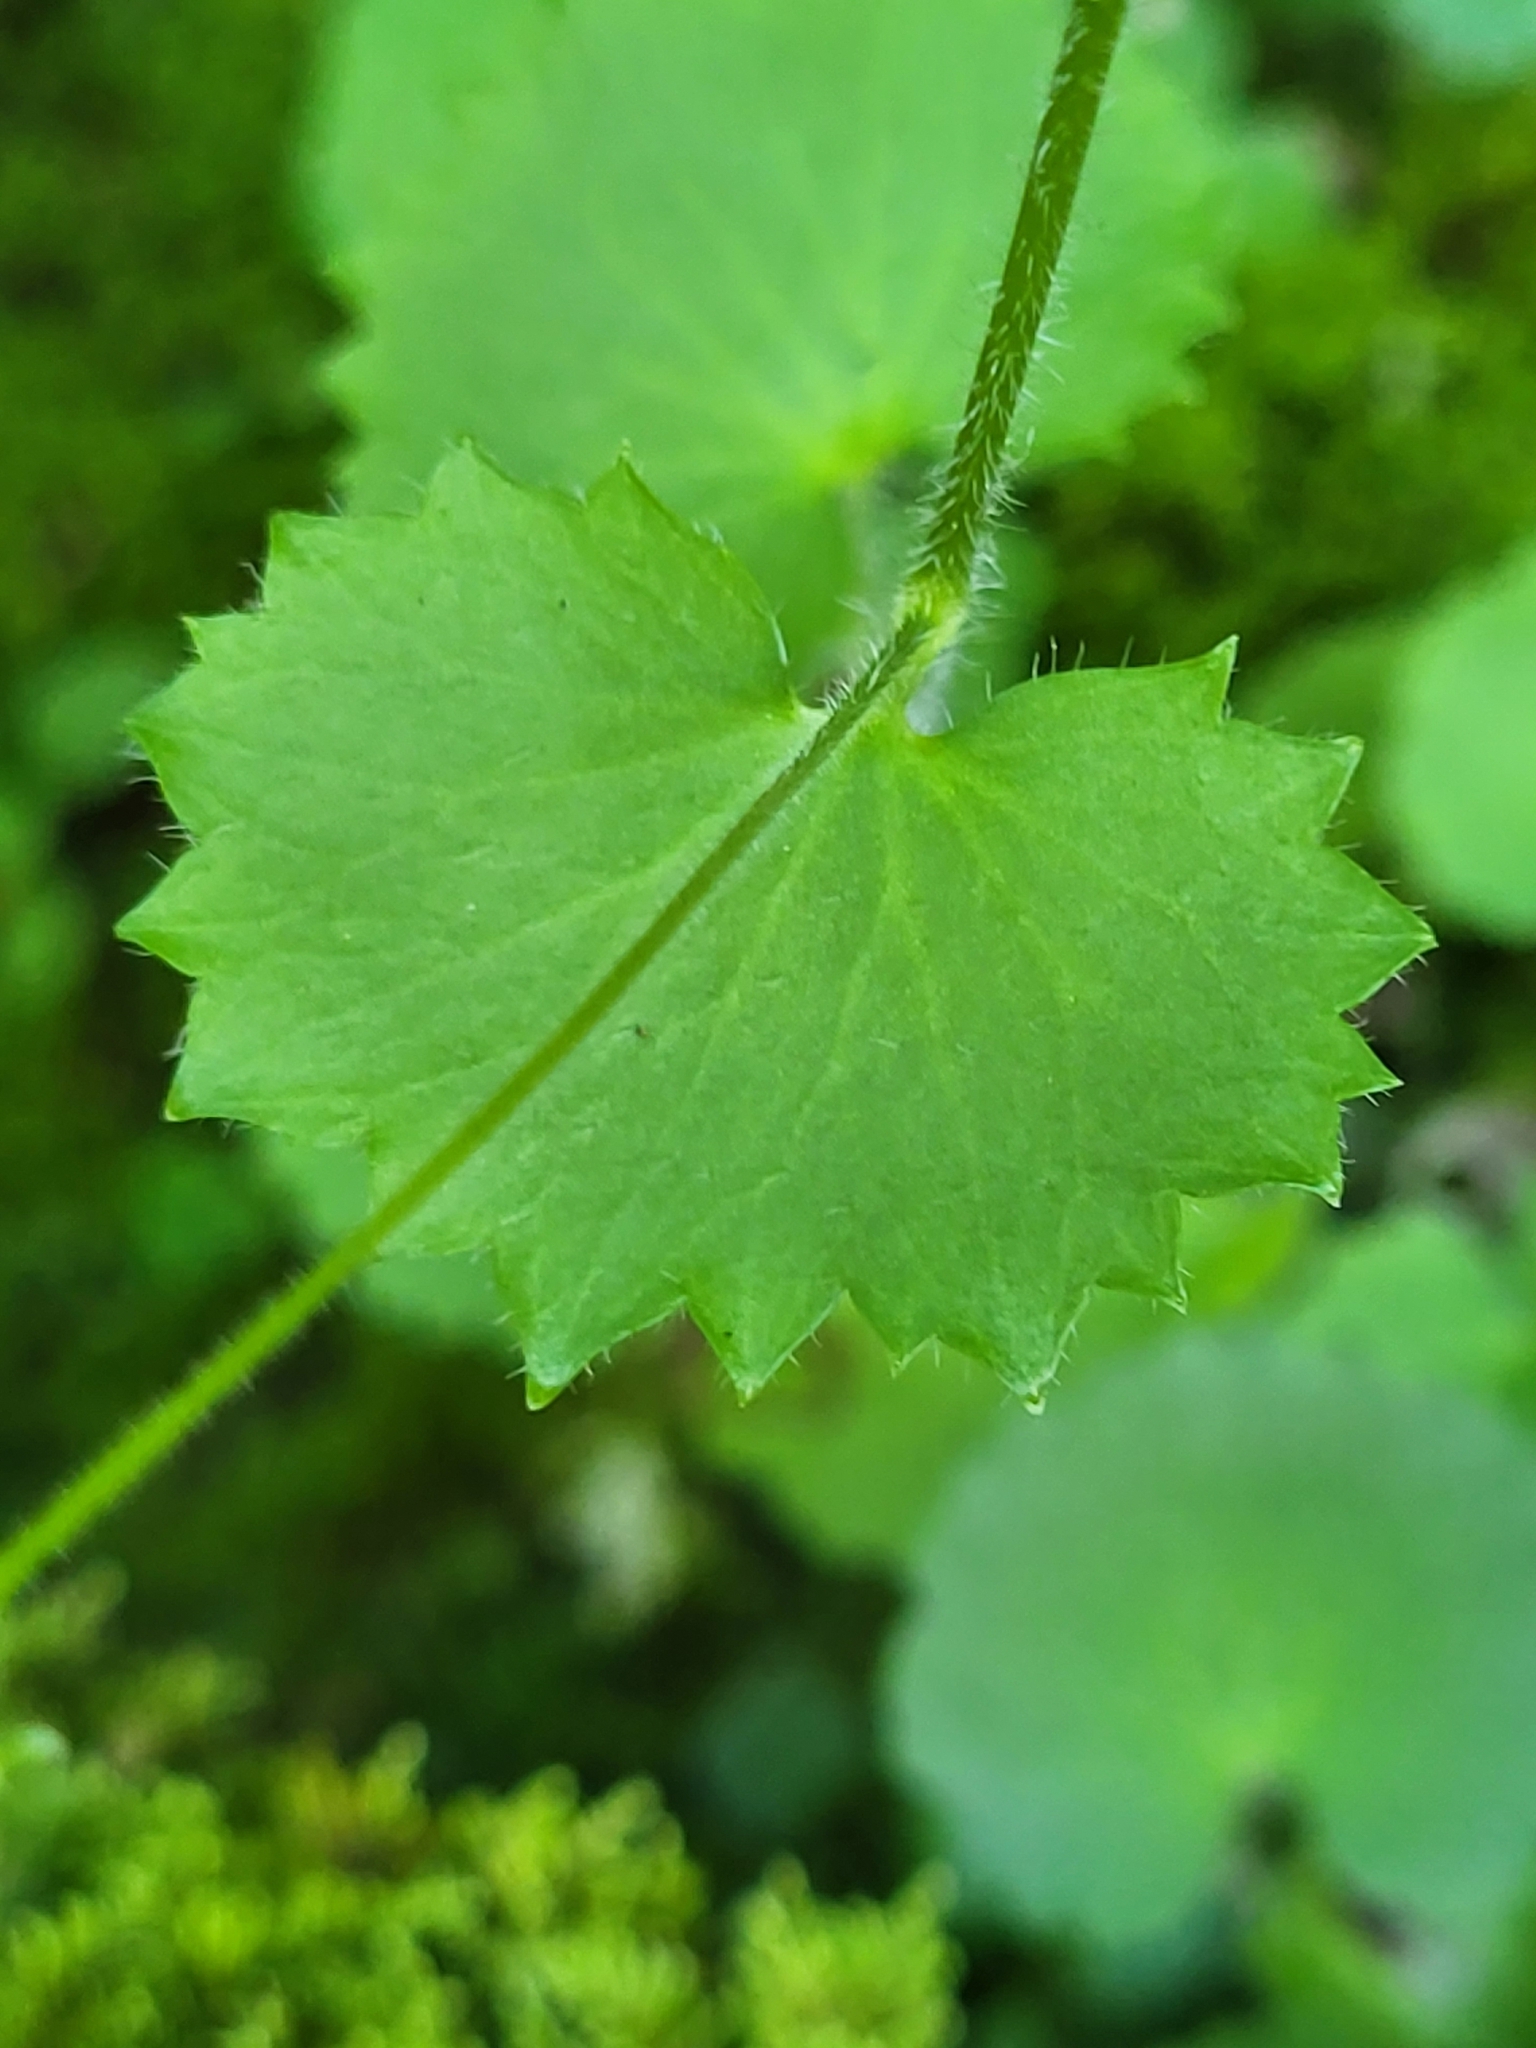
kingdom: Plantae
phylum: Tracheophyta
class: Magnoliopsida
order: Saxifragales
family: Saxifragaceae
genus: Saxifraga
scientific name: Saxifraga rotundifolia
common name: Round-leaved saxifrage
